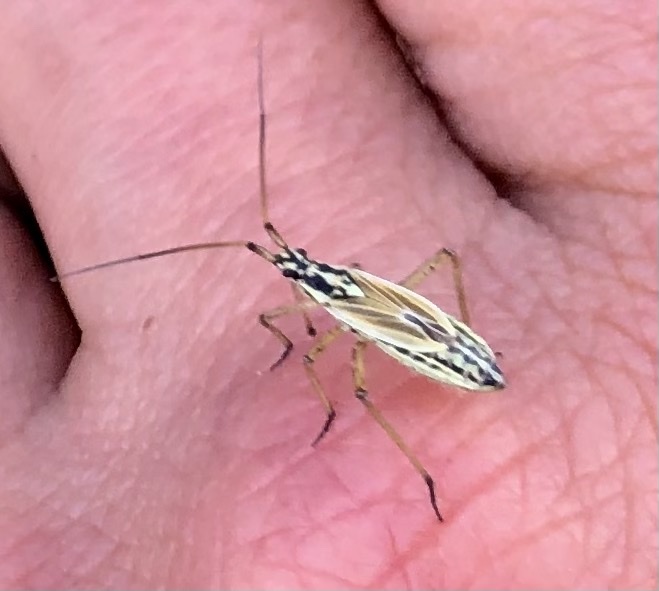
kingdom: Animalia
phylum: Arthropoda
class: Insecta
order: Hemiptera
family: Miridae
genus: Leptopterna
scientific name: Leptopterna dolabrata
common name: Meadow plant bug
